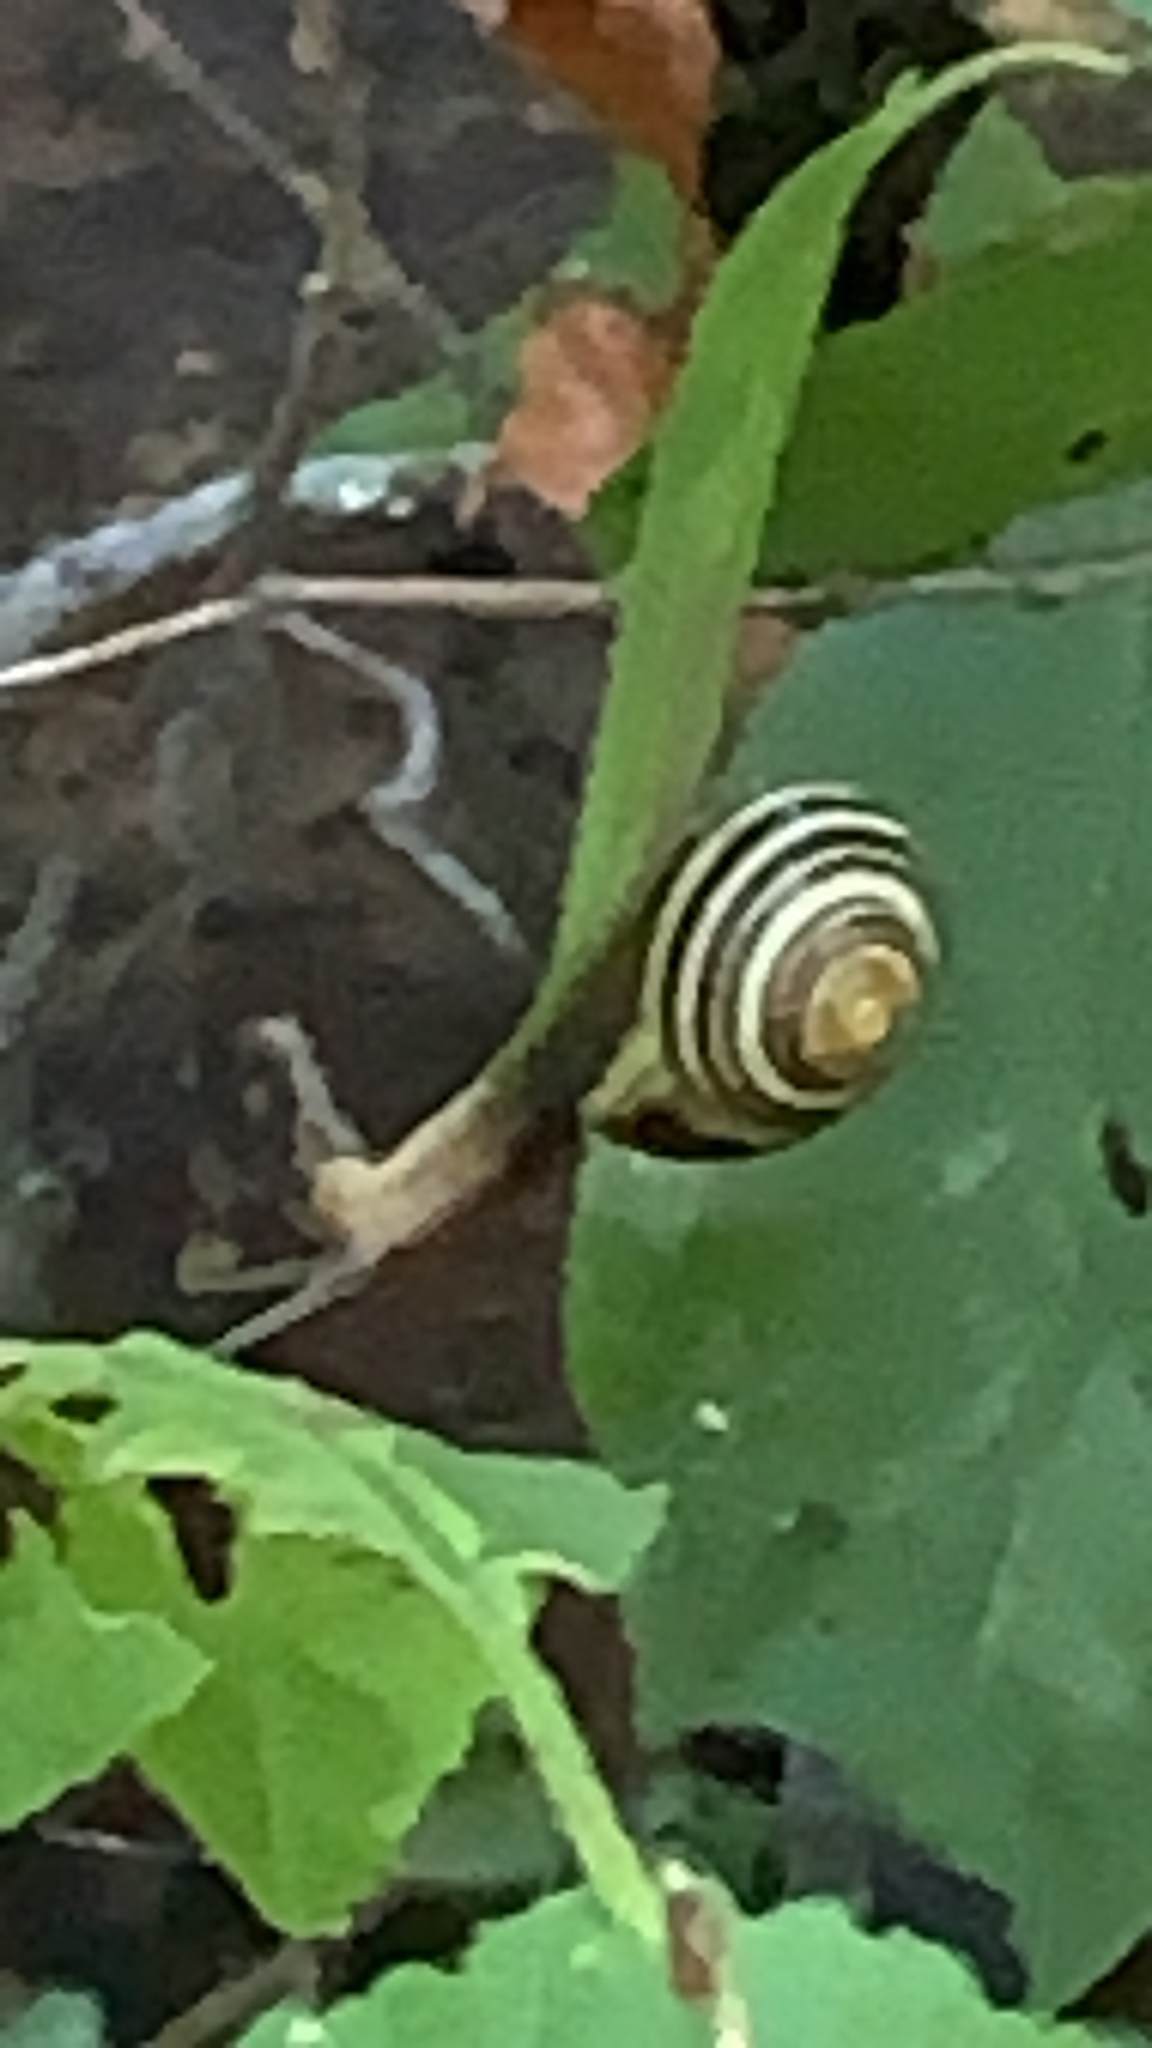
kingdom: Animalia
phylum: Mollusca
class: Gastropoda
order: Stylommatophora
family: Helicidae
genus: Cepaea
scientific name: Cepaea
